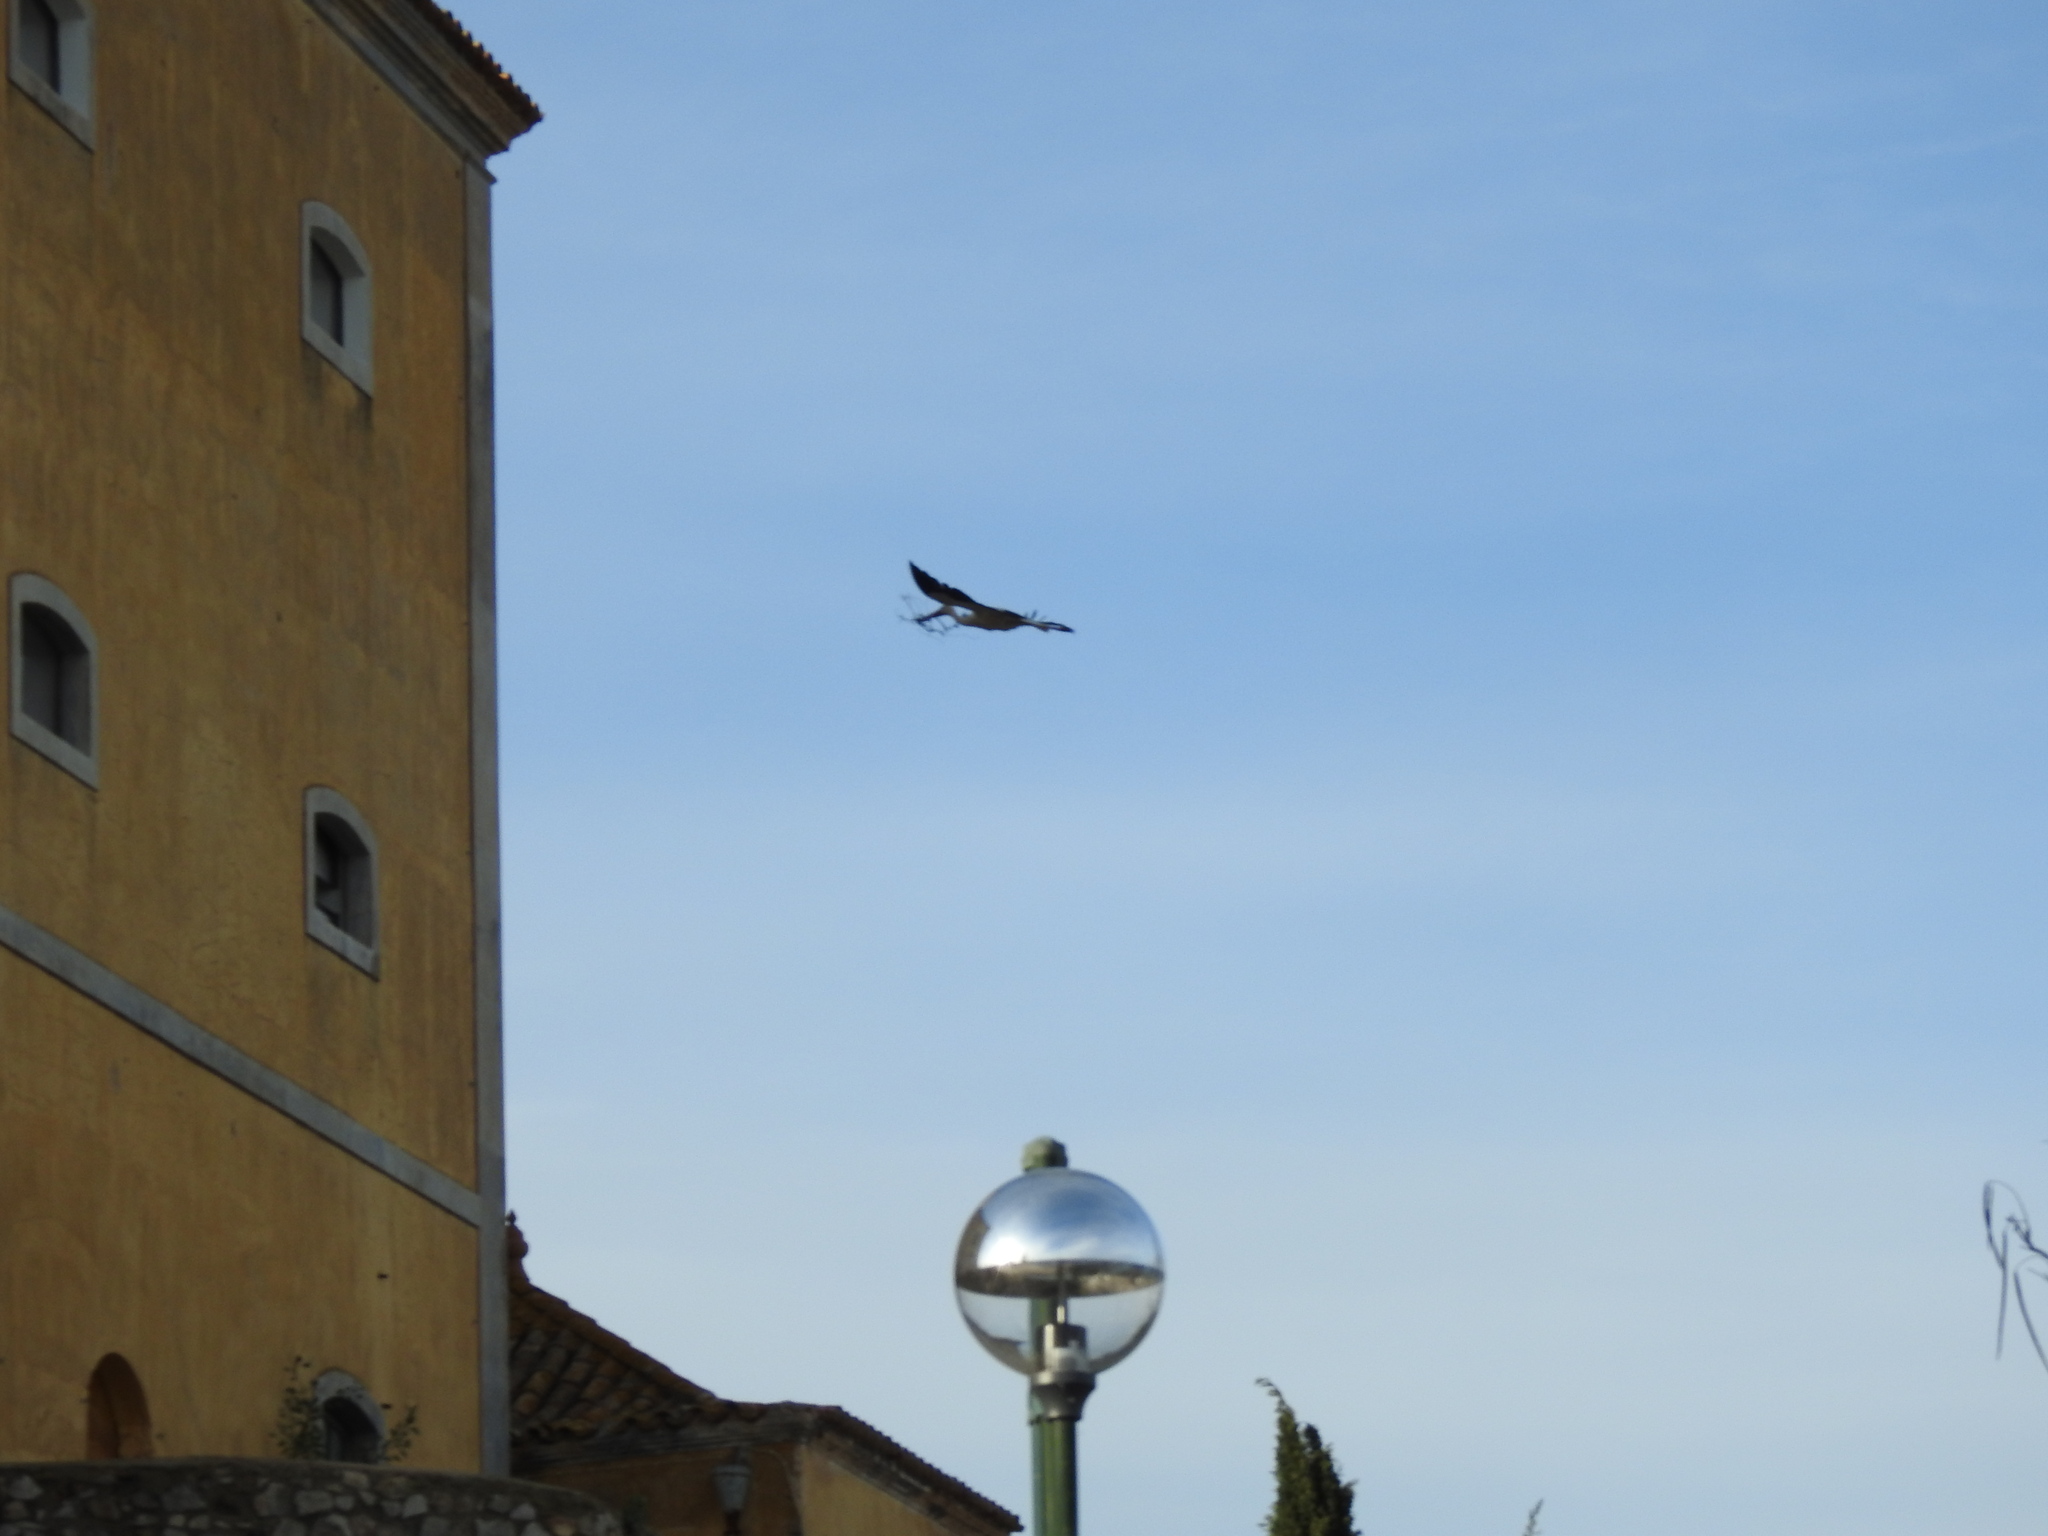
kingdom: Animalia
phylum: Chordata
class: Aves
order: Ciconiiformes
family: Ciconiidae
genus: Ciconia
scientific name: Ciconia ciconia
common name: White stork
